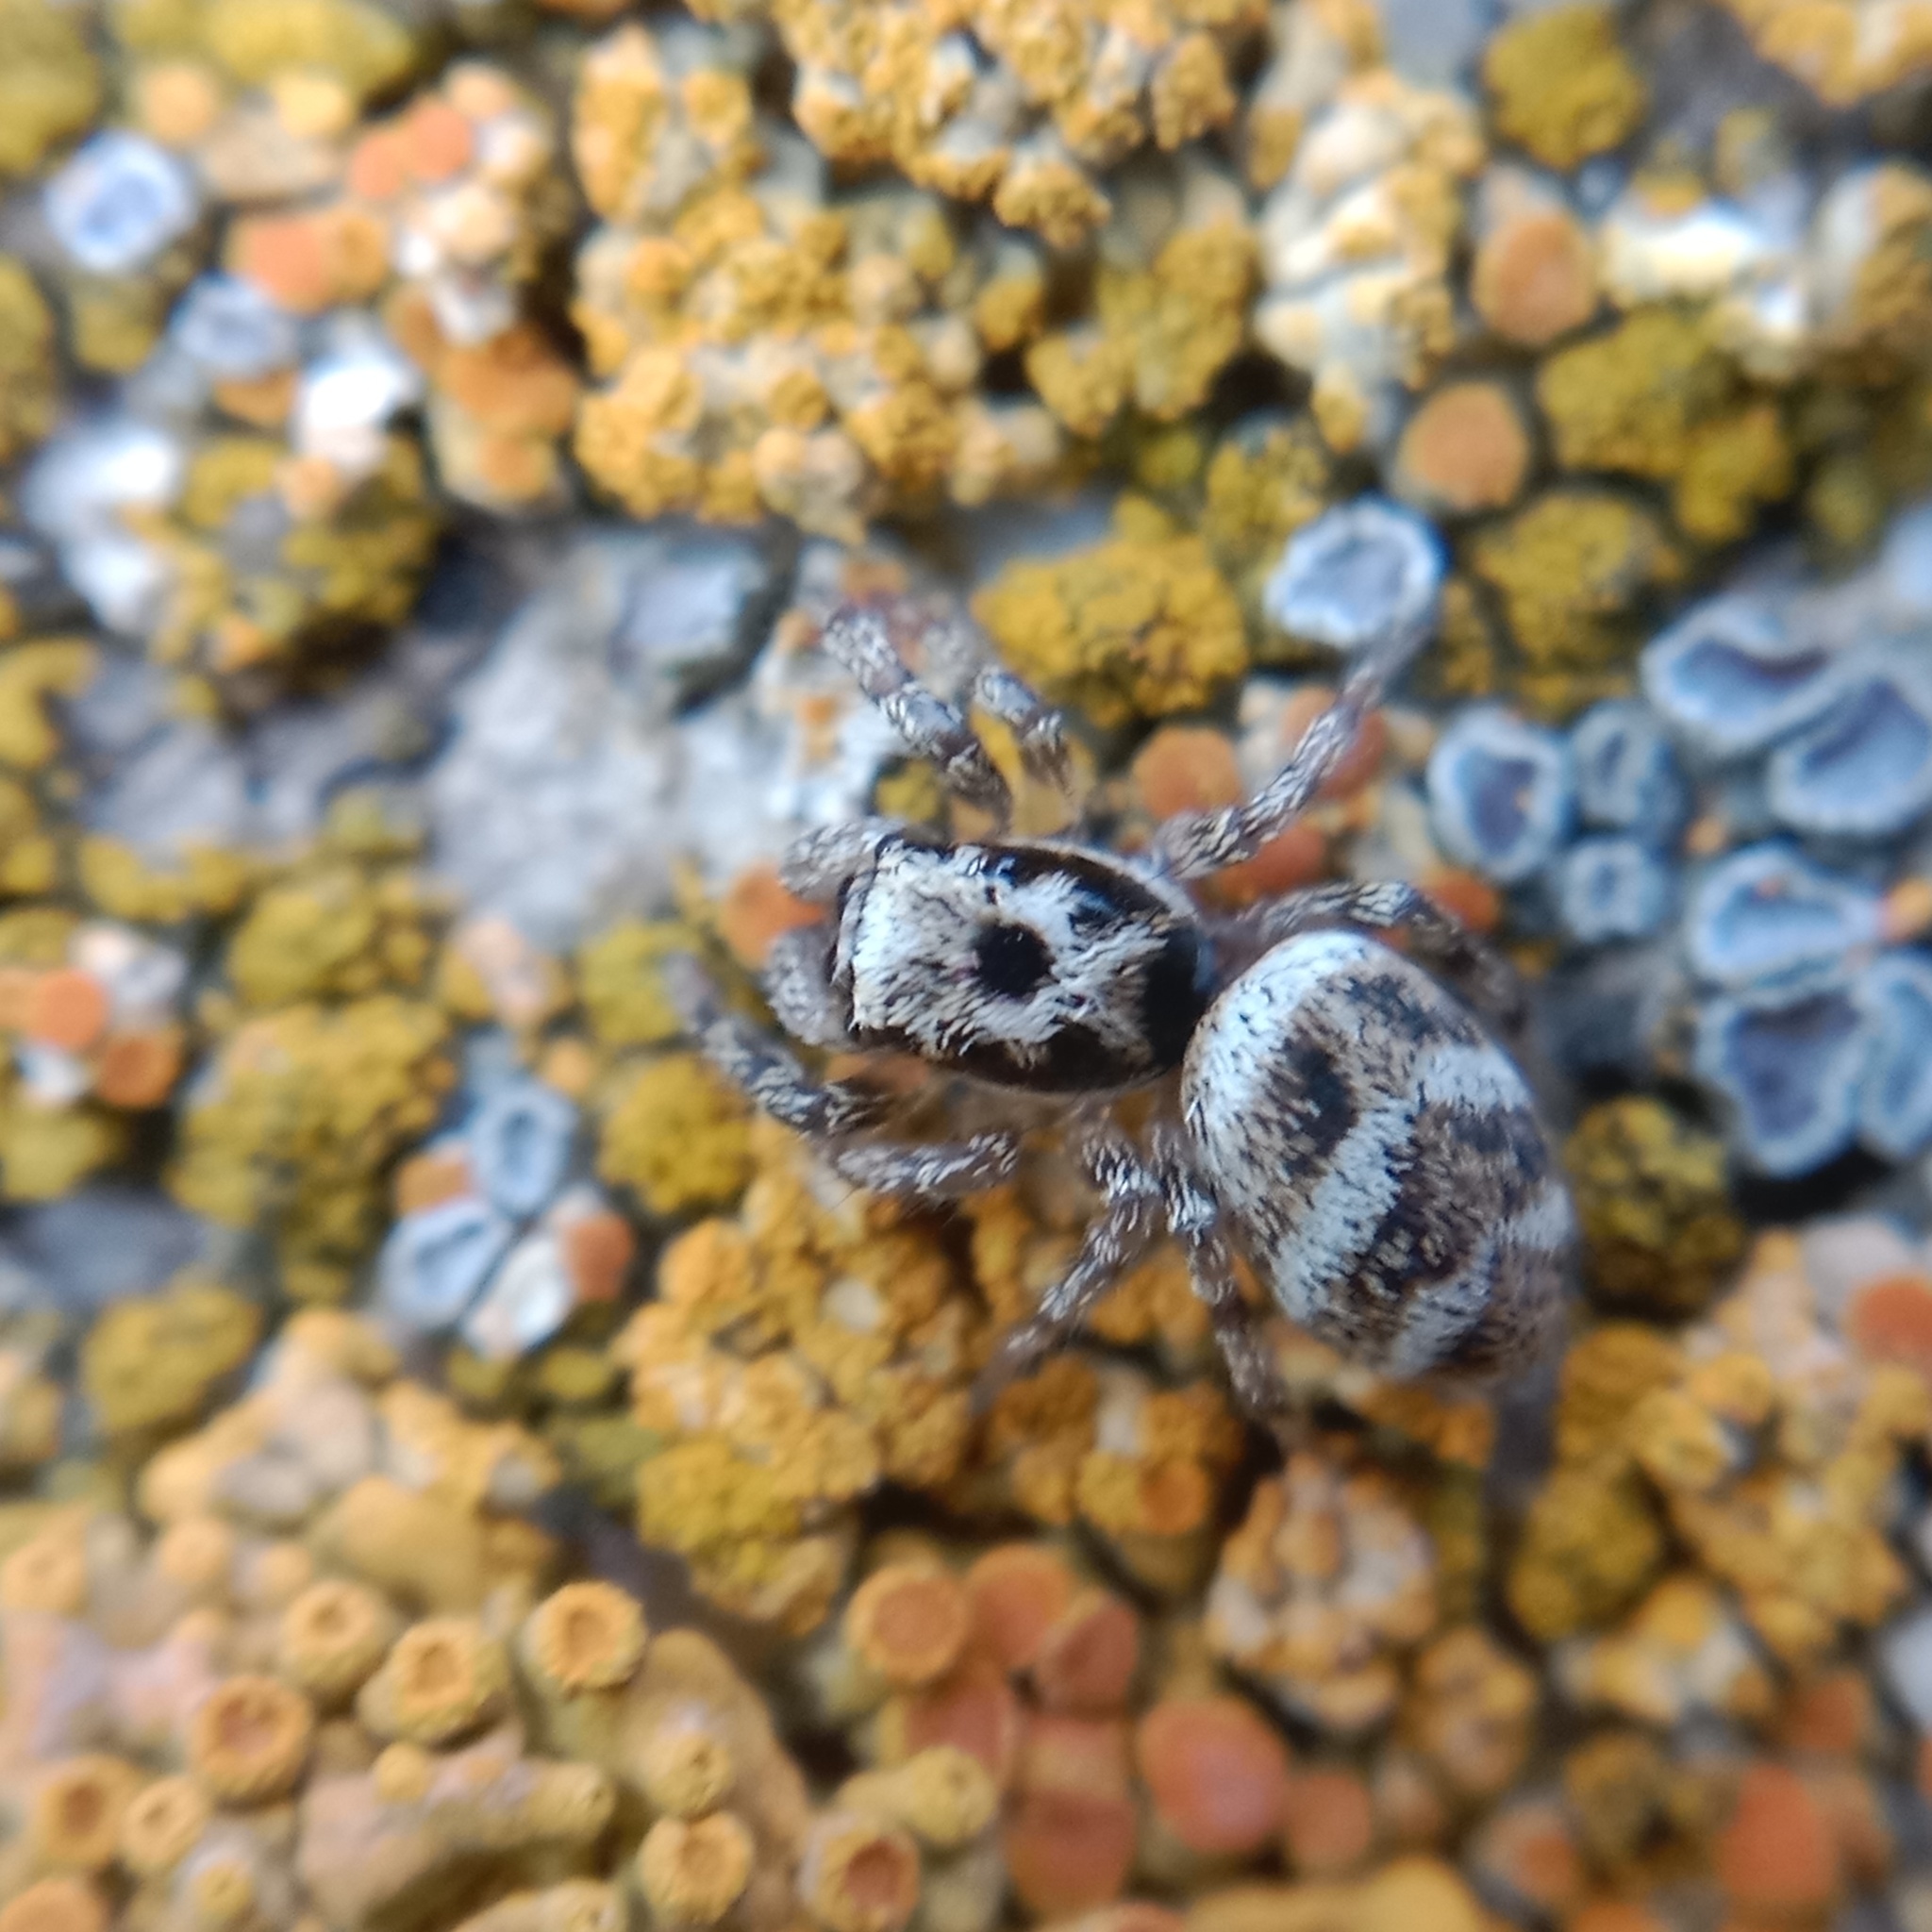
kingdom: Animalia
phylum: Arthropoda
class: Arachnida
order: Araneae
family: Salticidae
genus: Salticus
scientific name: Salticus scenicus
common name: Zebra jumper
